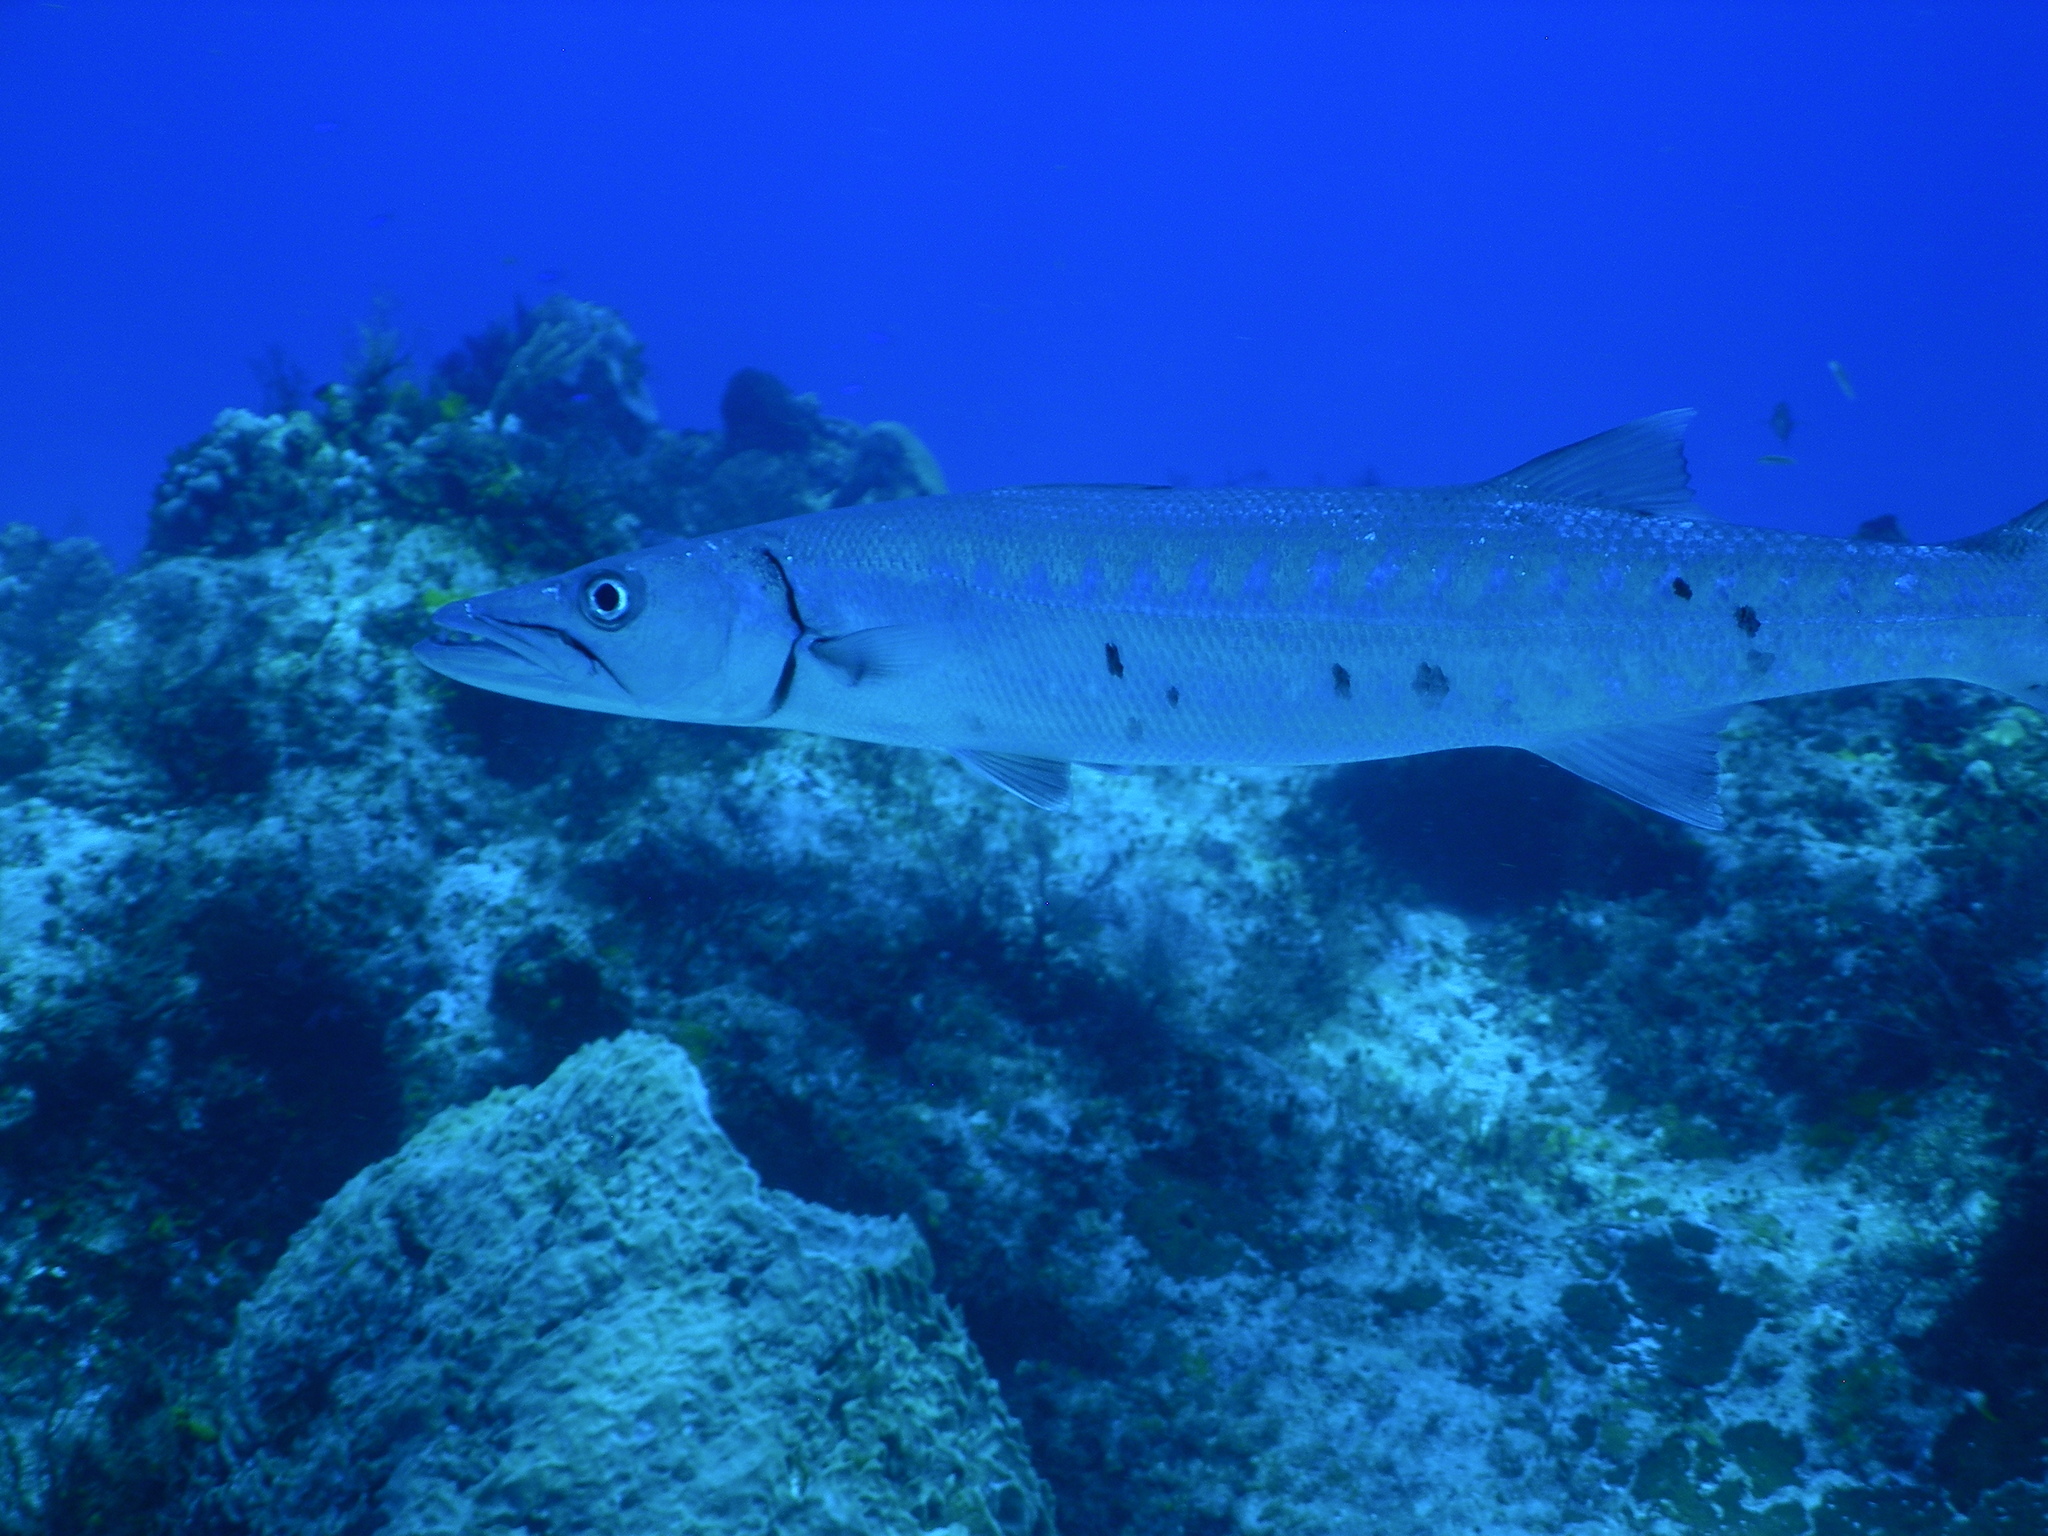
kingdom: Animalia
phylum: Chordata
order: Perciformes
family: Sphyraenidae
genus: Sphyraena
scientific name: Sphyraena barracuda
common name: Great barracuda
